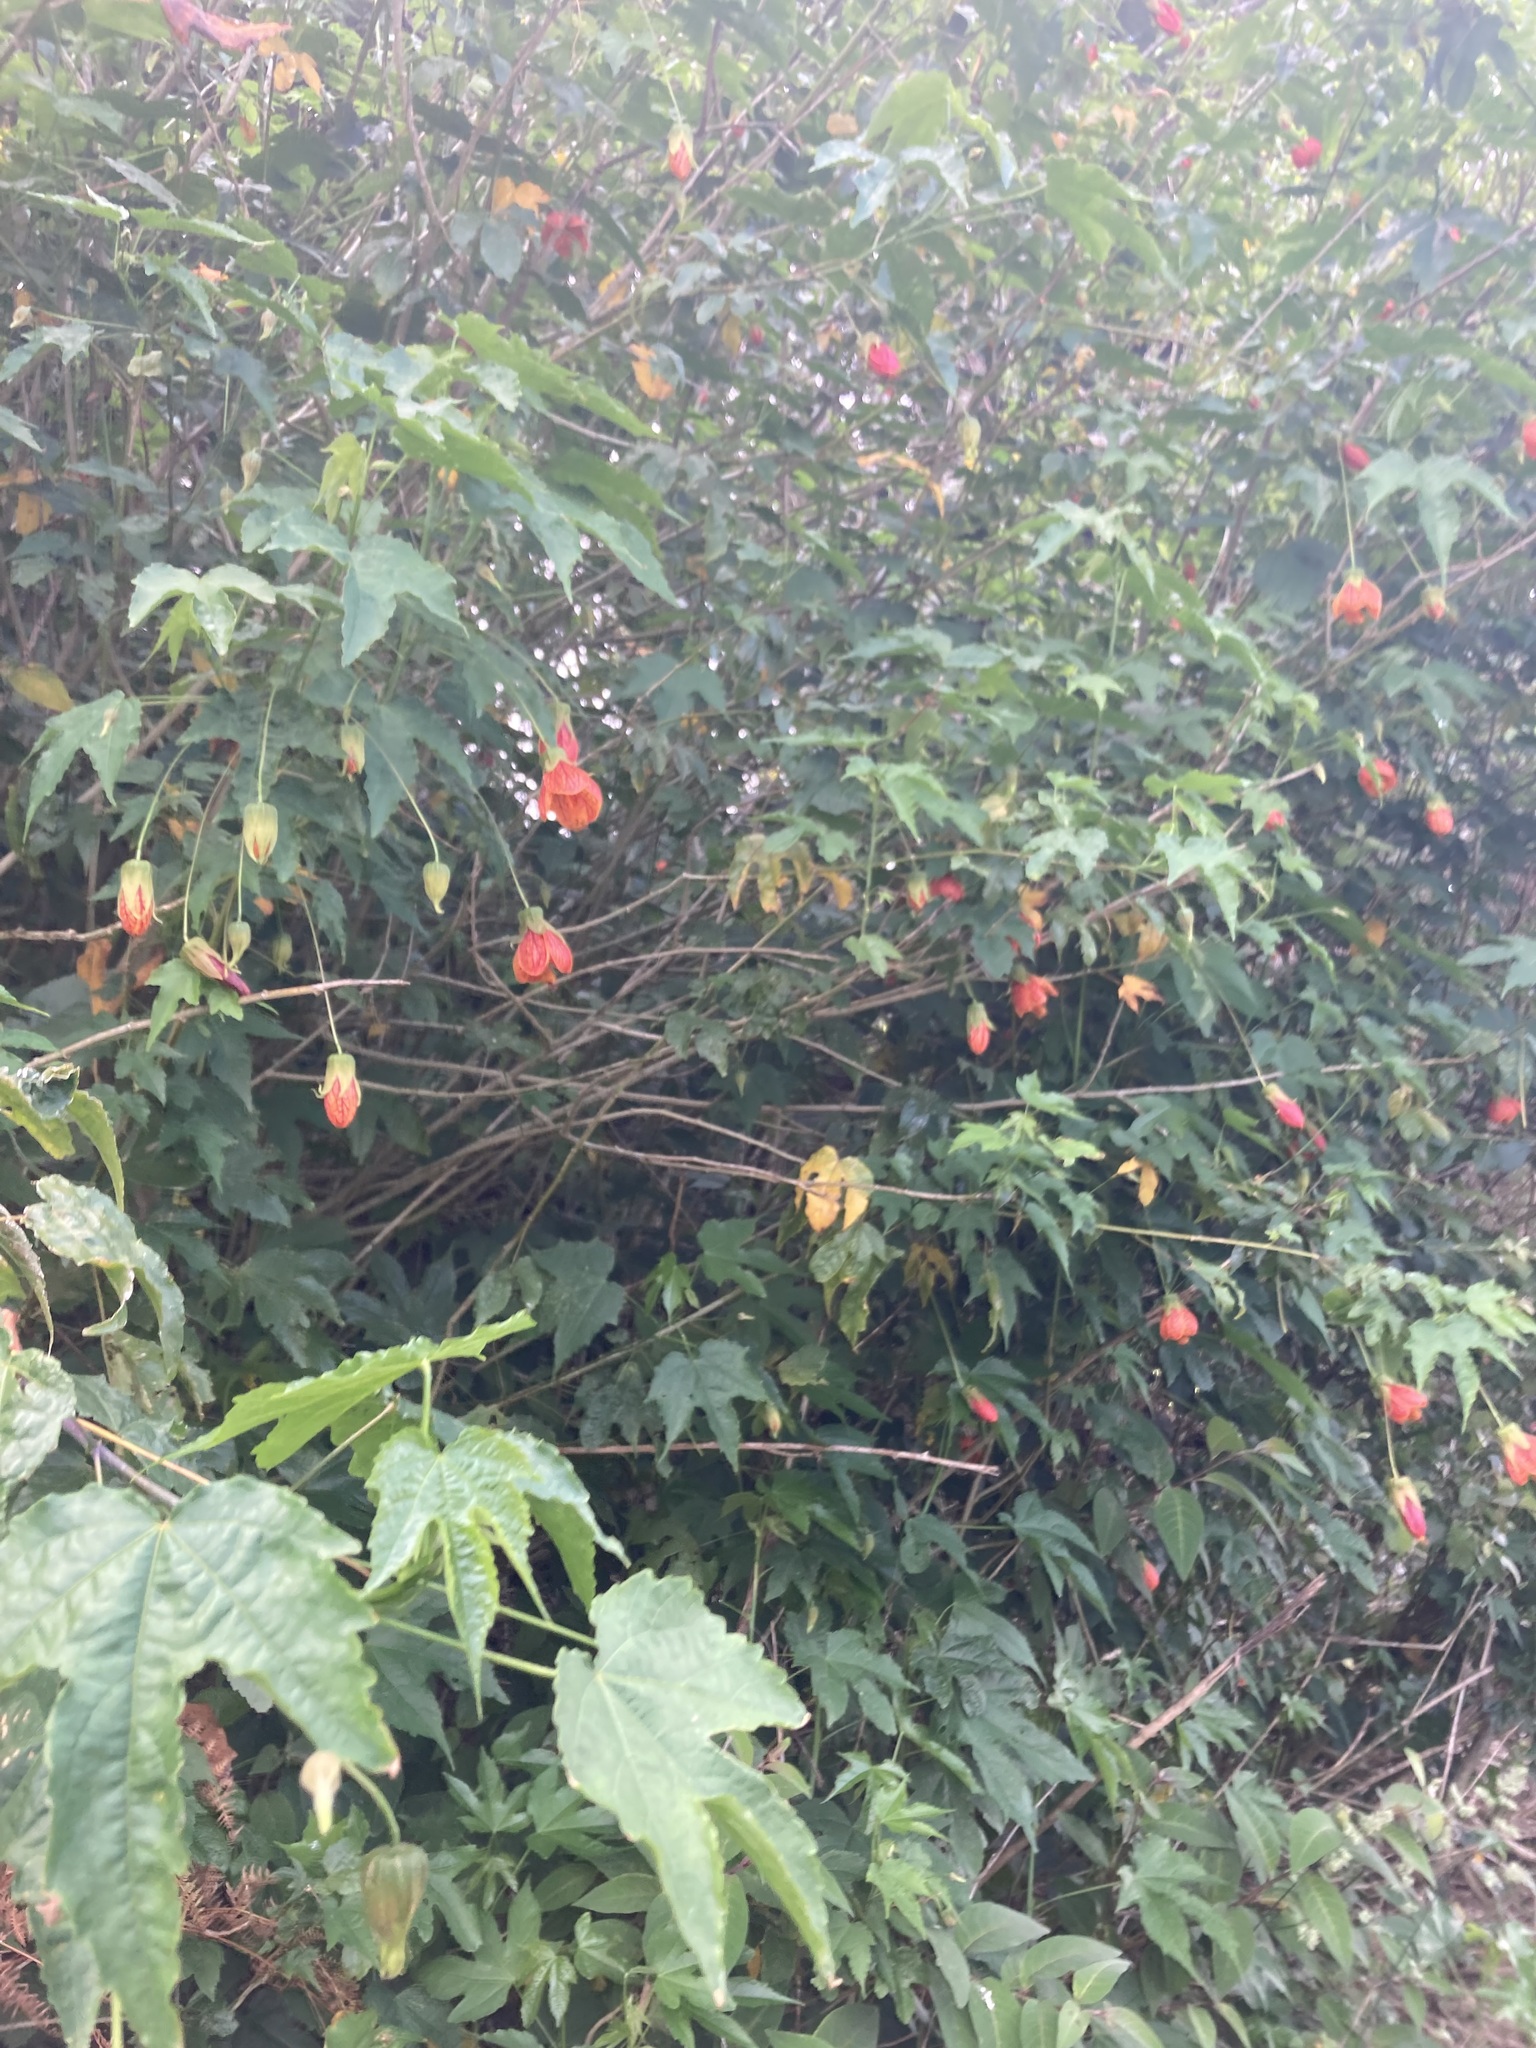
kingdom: Plantae
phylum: Tracheophyta
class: Magnoliopsida
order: Malvales
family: Malvaceae
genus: Callianthe
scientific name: Callianthe picta
